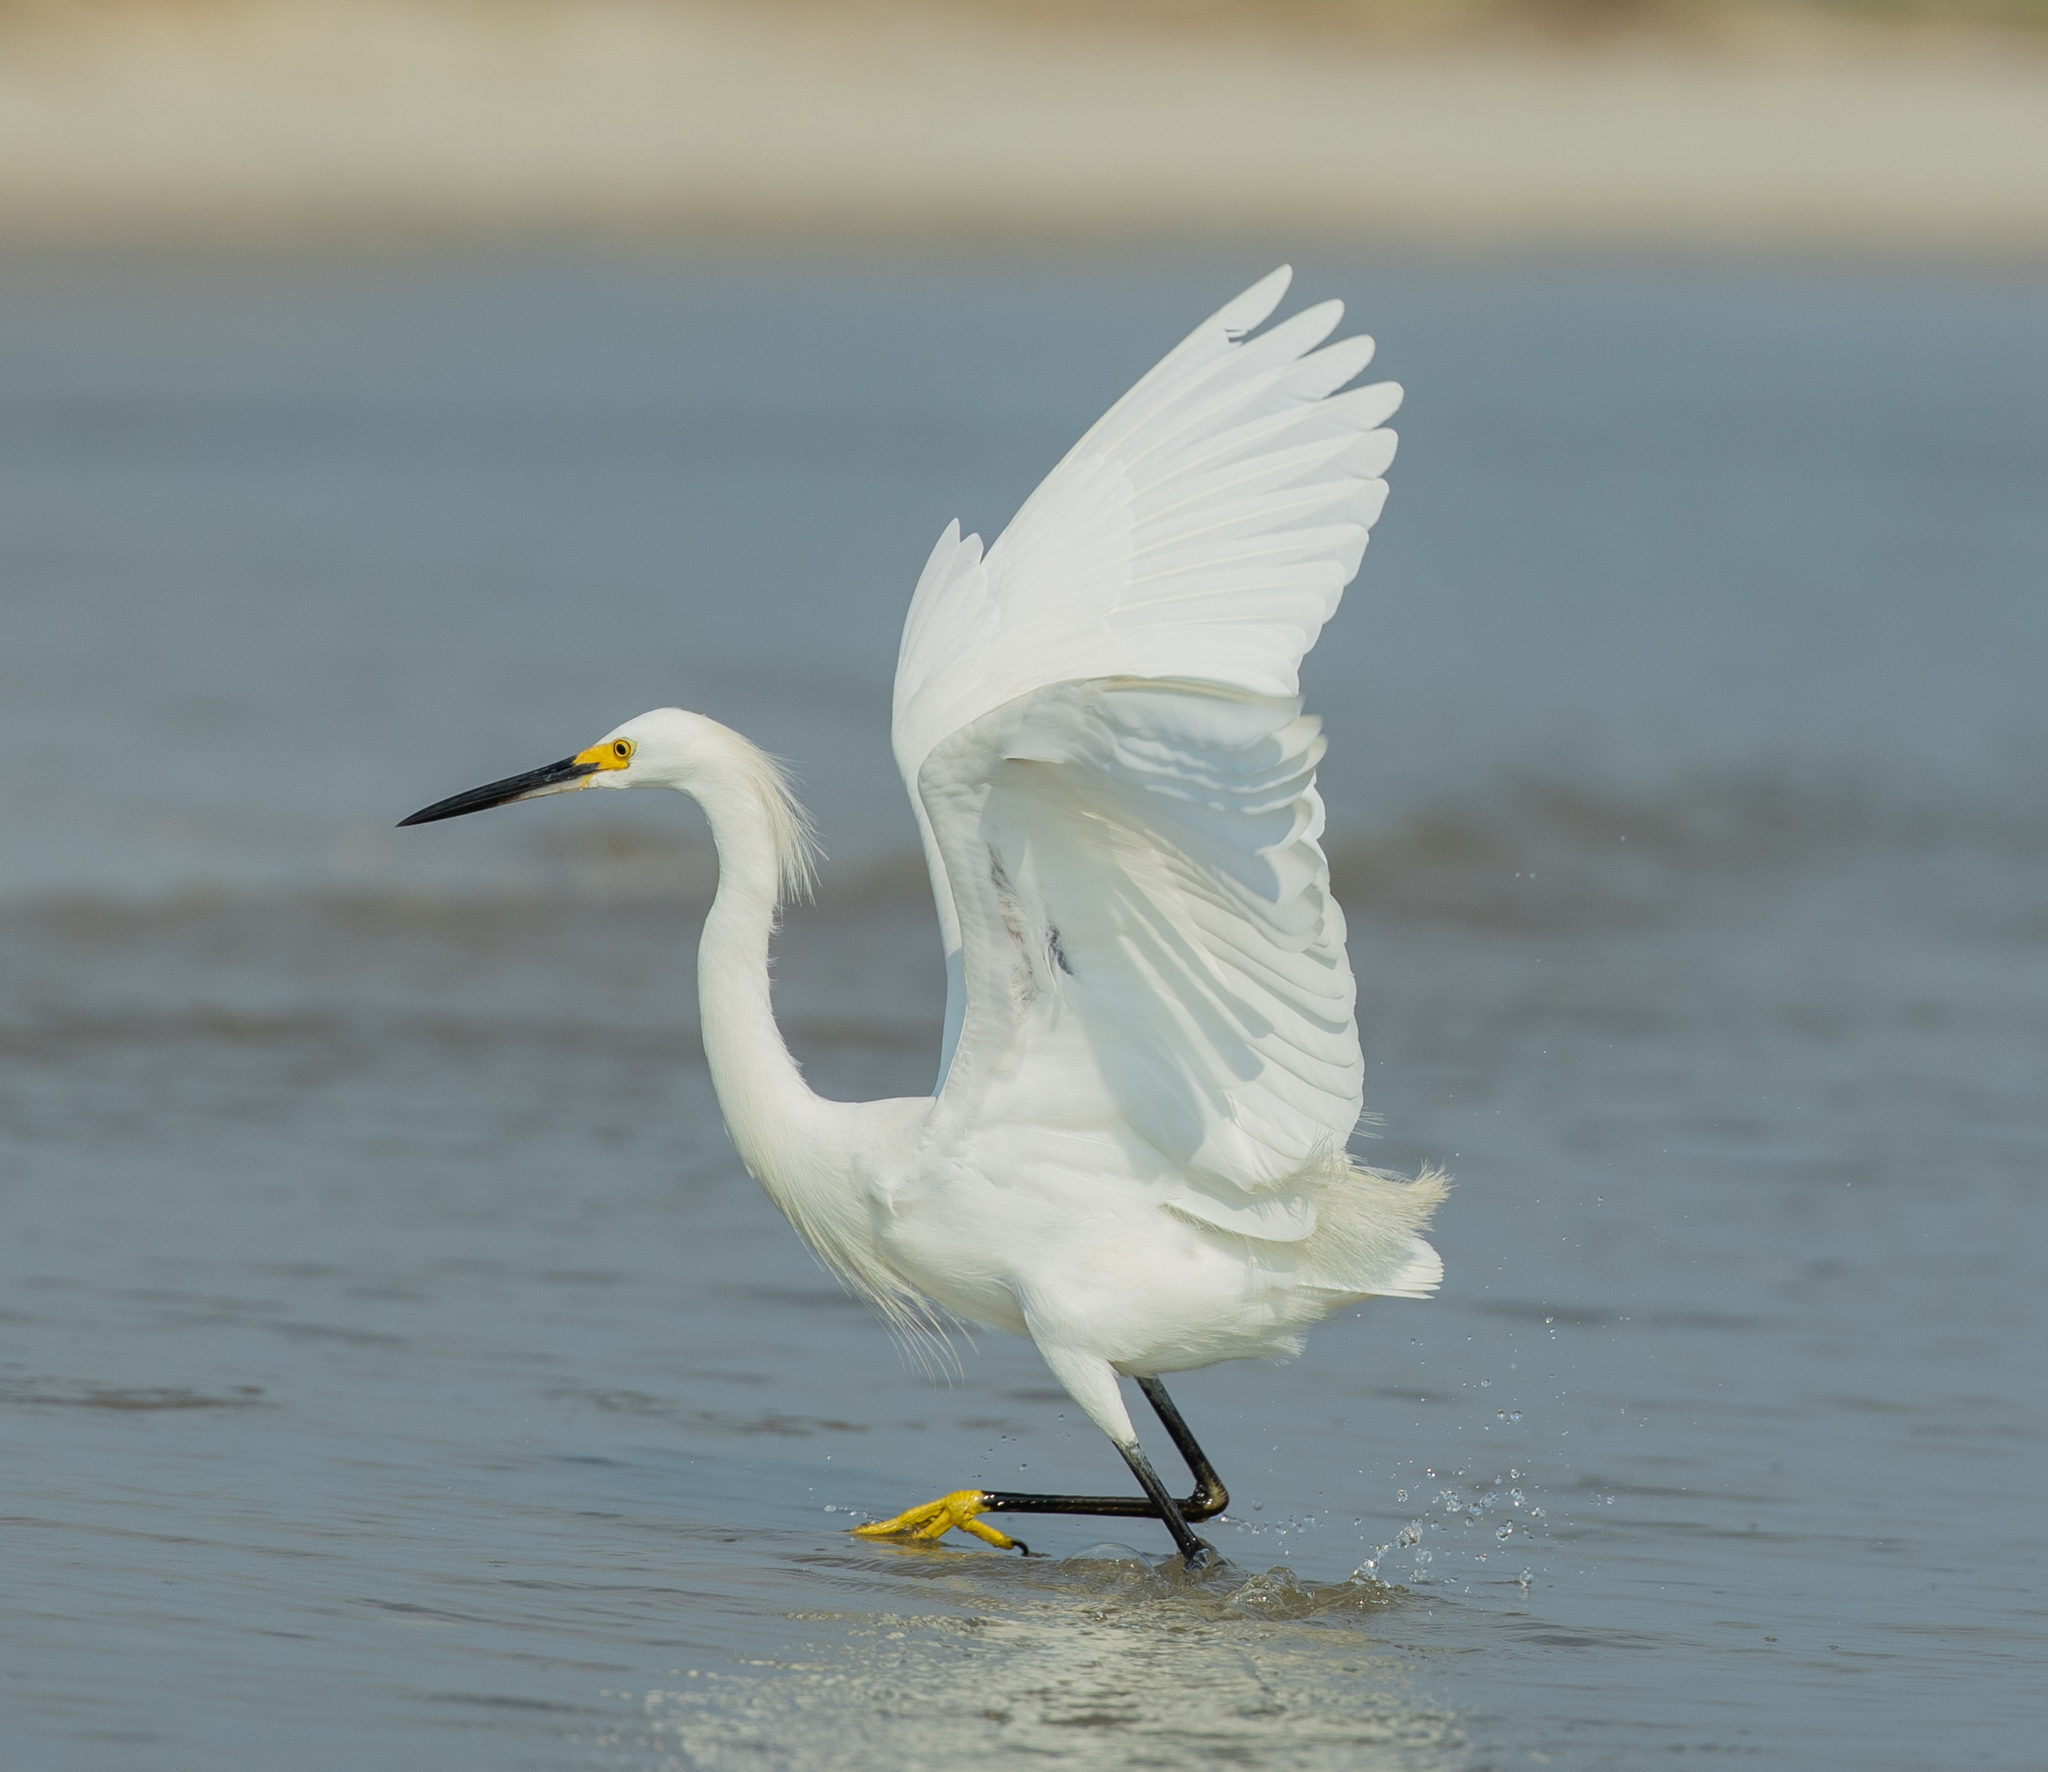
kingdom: Animalia
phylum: Chordata
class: Aves
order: Pelecaniformes
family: Ardeidae
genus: Egretta
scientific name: Egretta thula
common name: Snowy egret
